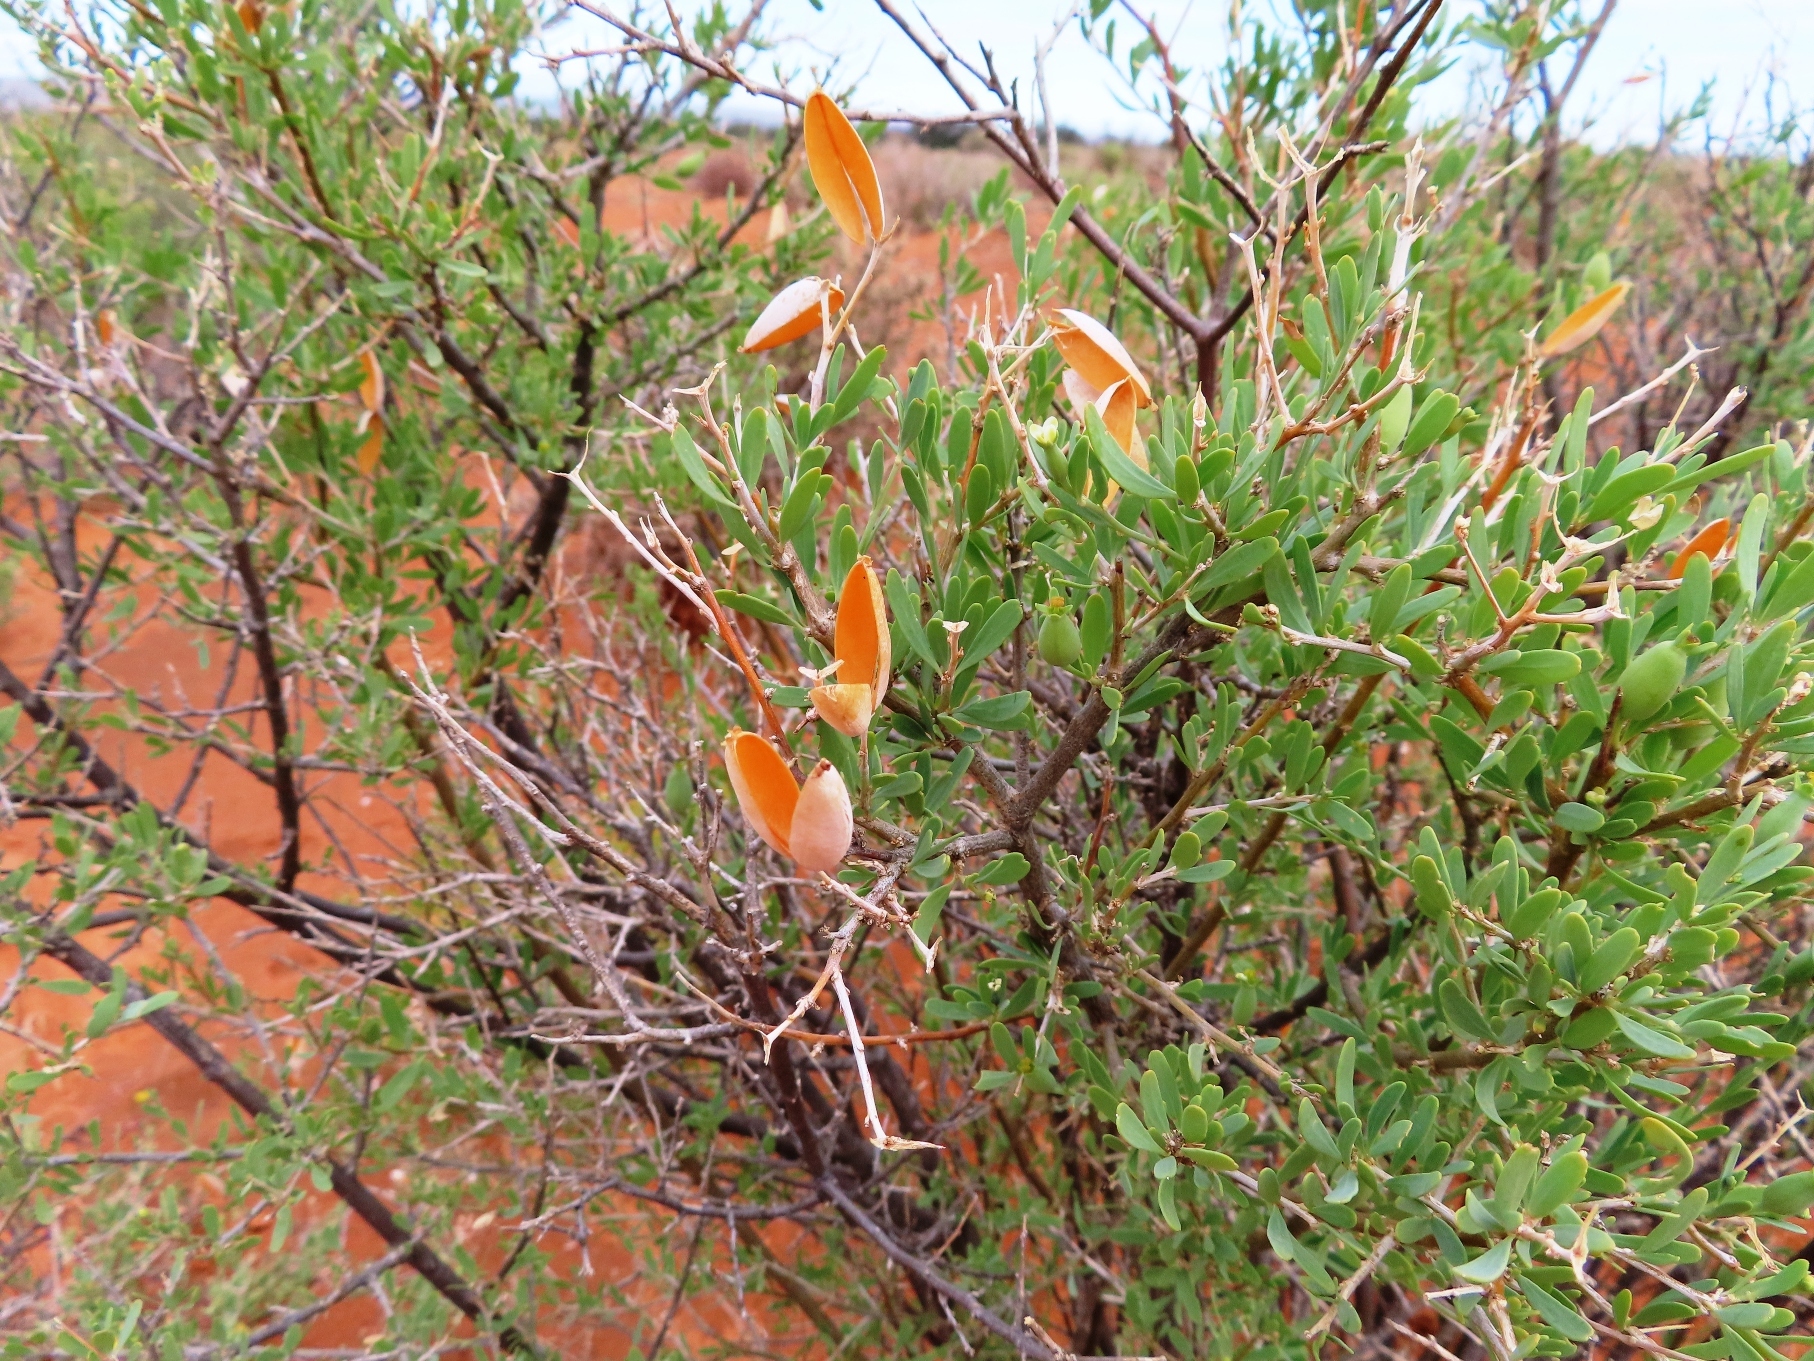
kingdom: Plantae
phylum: Tracheophyta
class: Magnoliopsida
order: Solanales
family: Montiniaceae
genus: Montinia
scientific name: Montinia caryophyllacea
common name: Wild clove-bush
